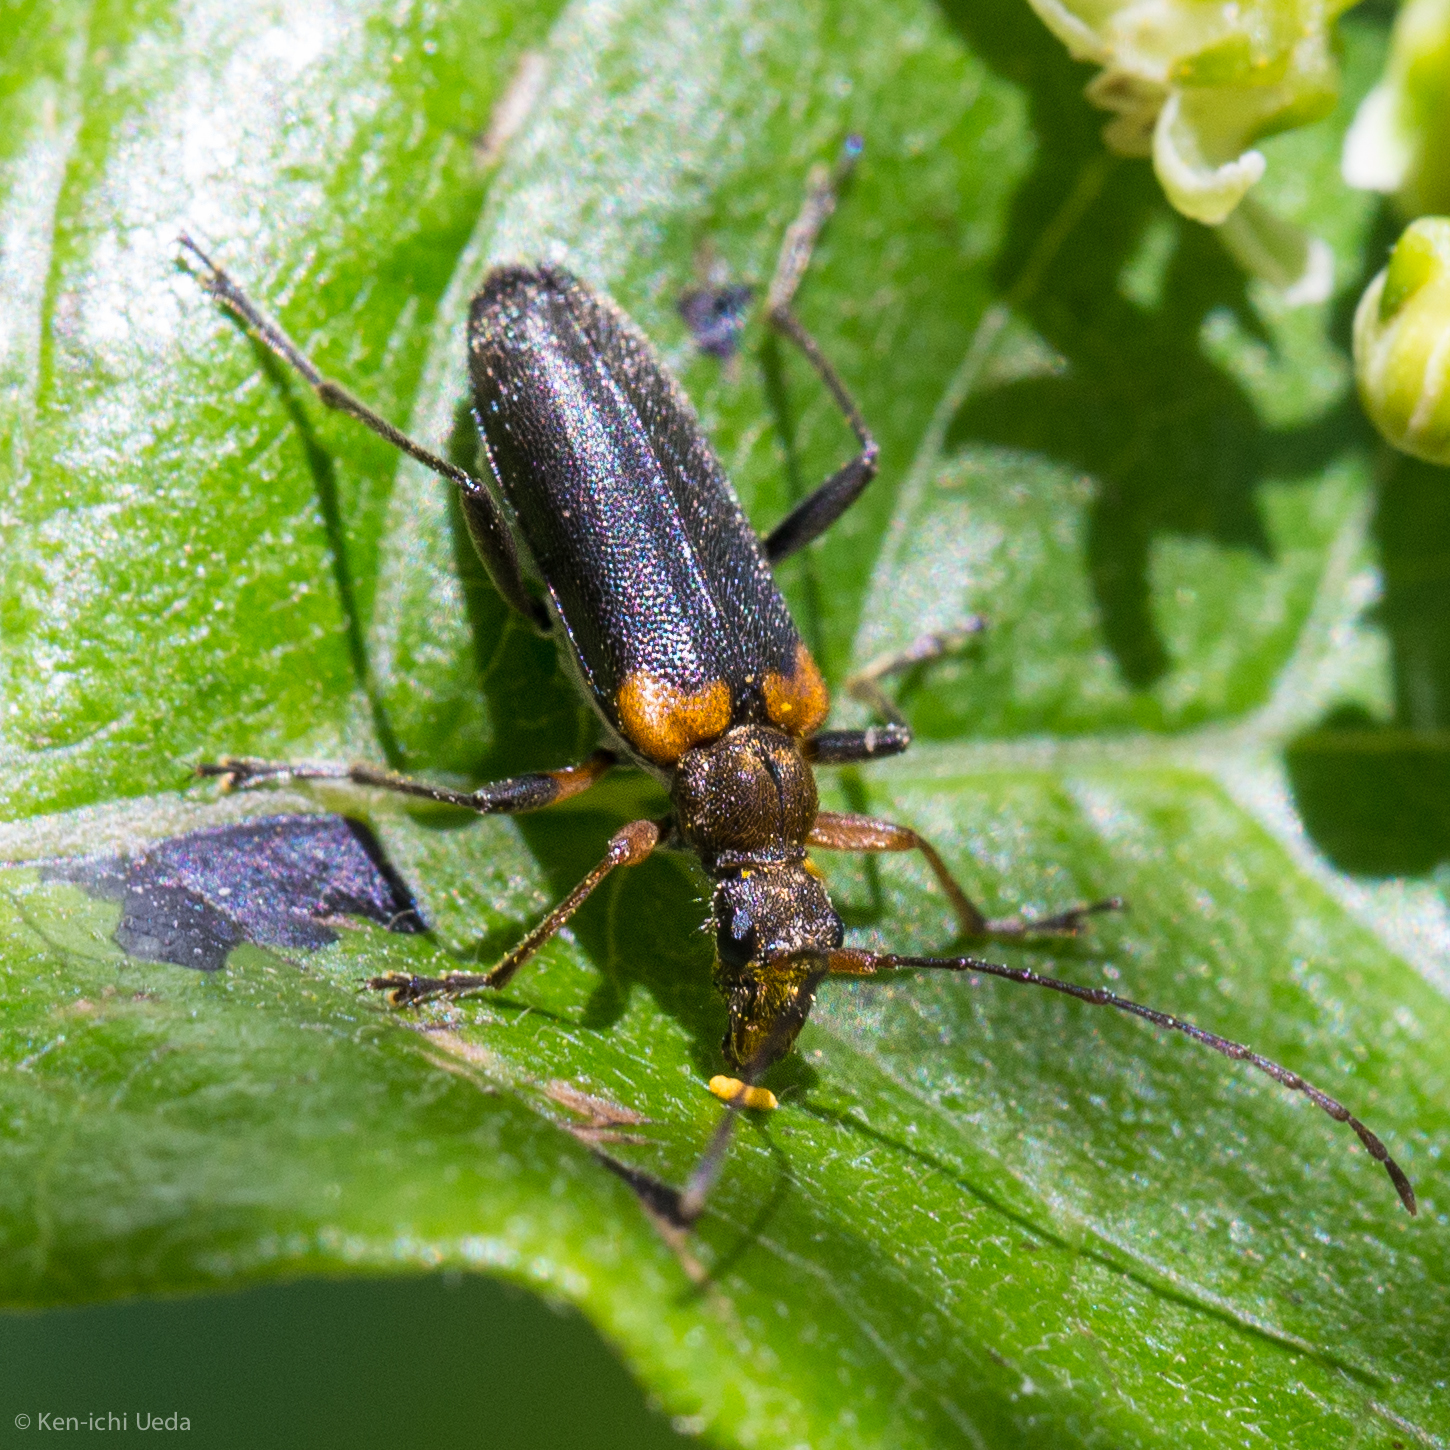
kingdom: Animalia
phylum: Arthropoda
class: Insecta
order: Coleoptera
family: Cerambycidae
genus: Cortodera
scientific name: Cortodera cubitalis
